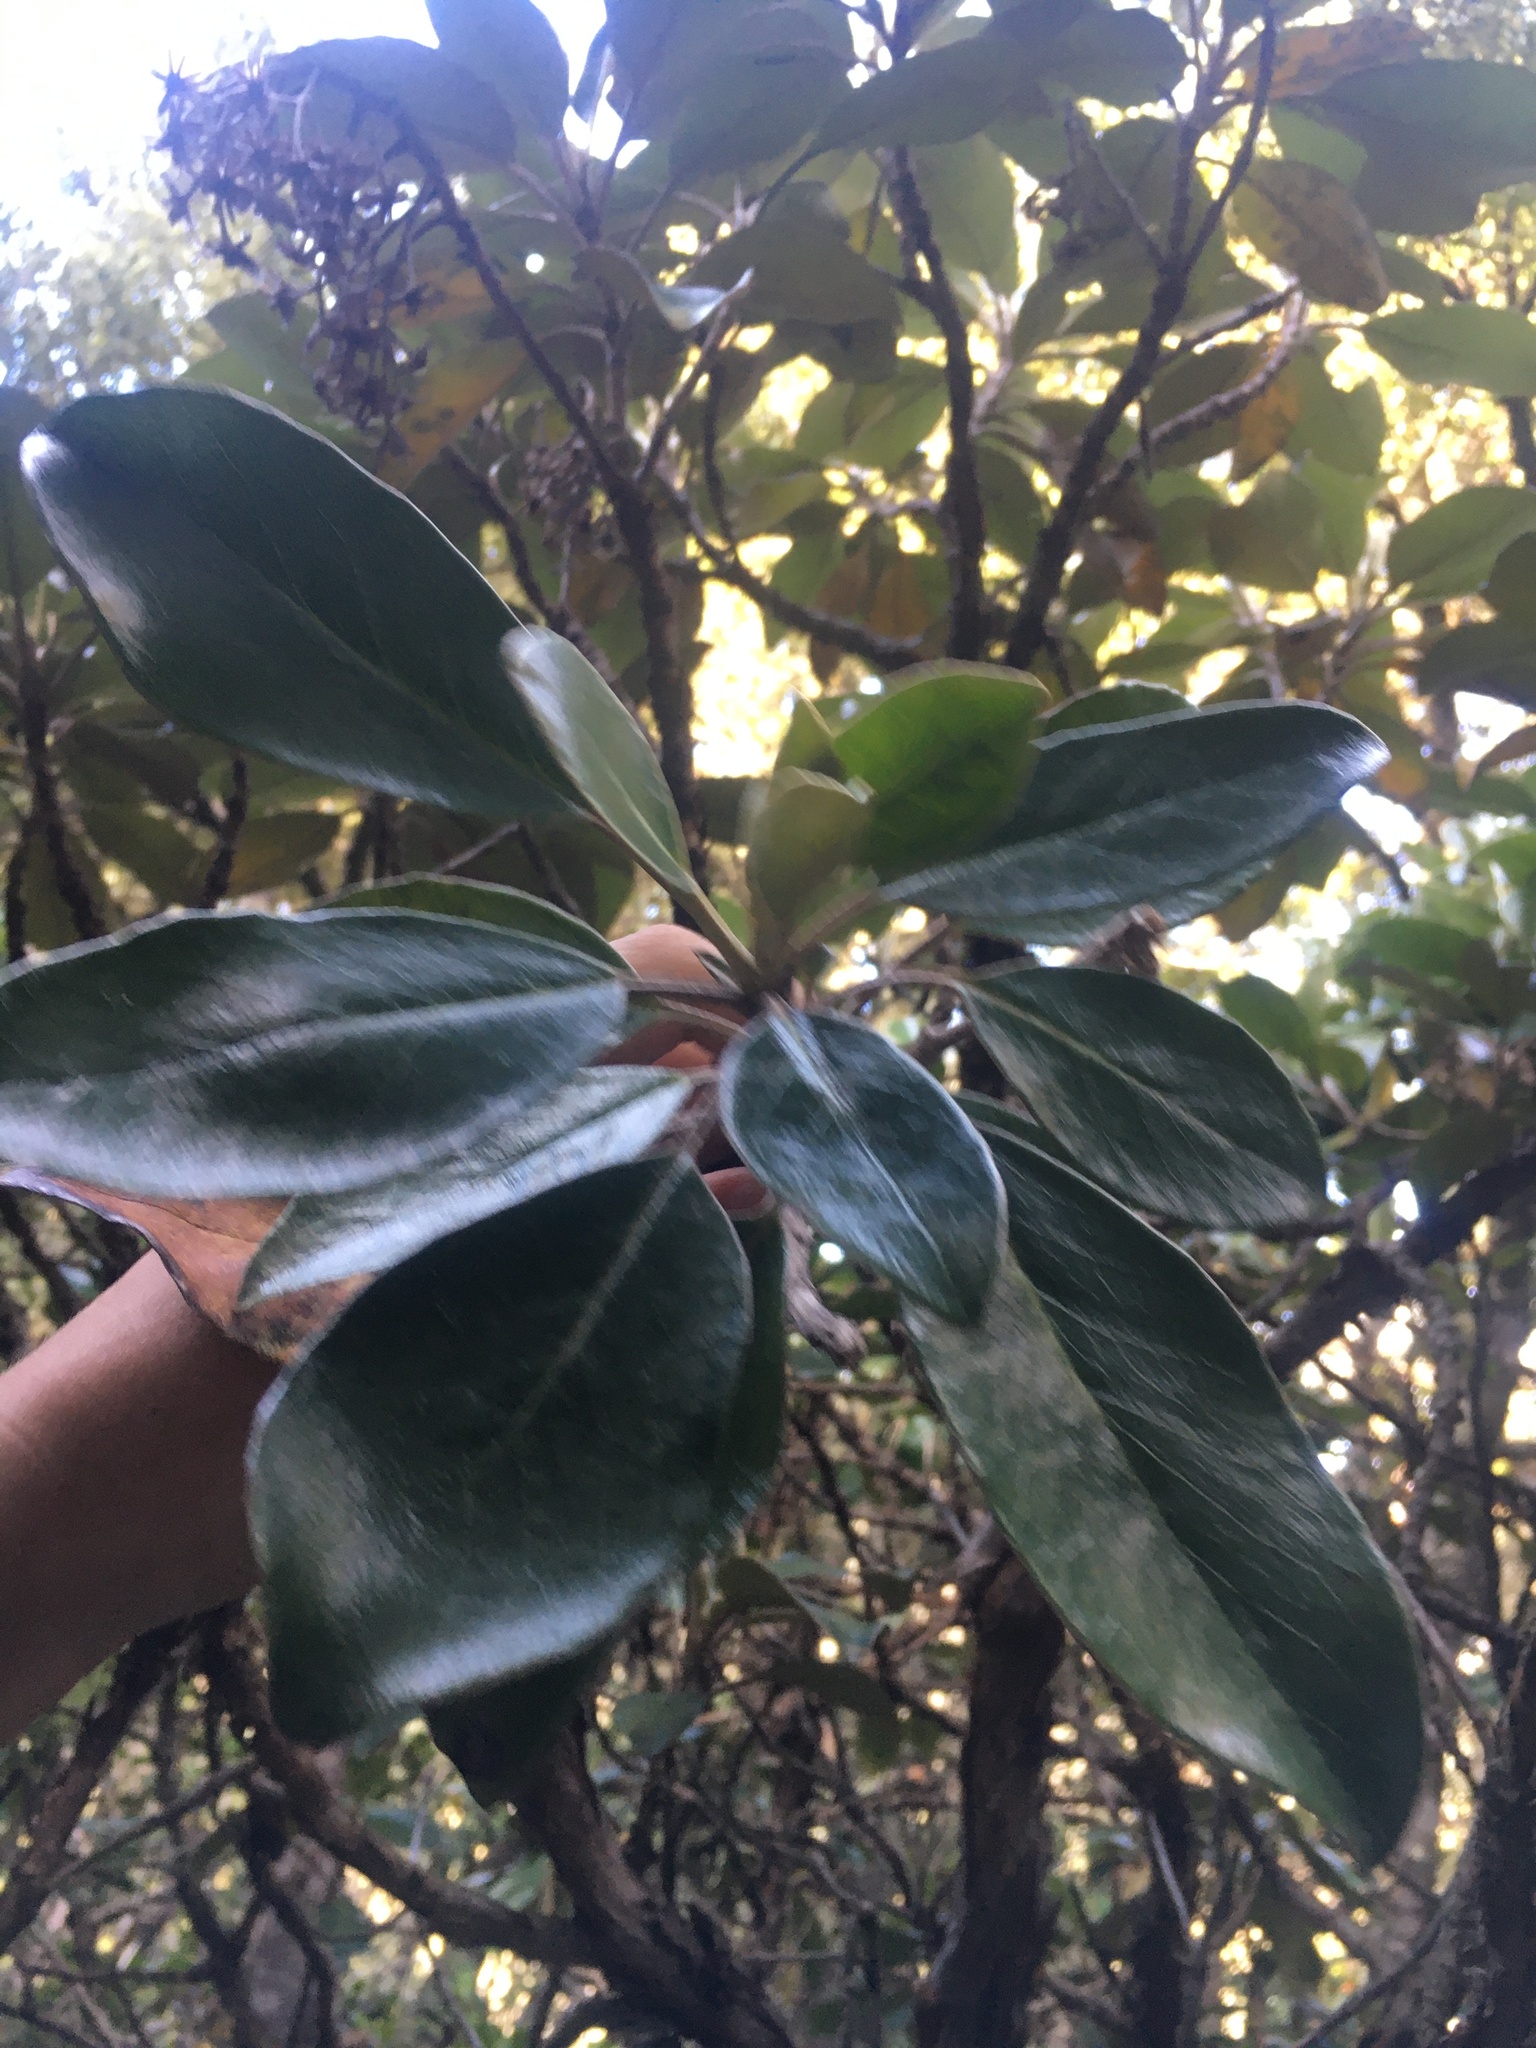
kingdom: Plantae
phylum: Tracheophyta
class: Magnoliopsida
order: Asterales
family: Asteraceae
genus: Brachyglottis
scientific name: Brachyglottis elaeagnifolia
